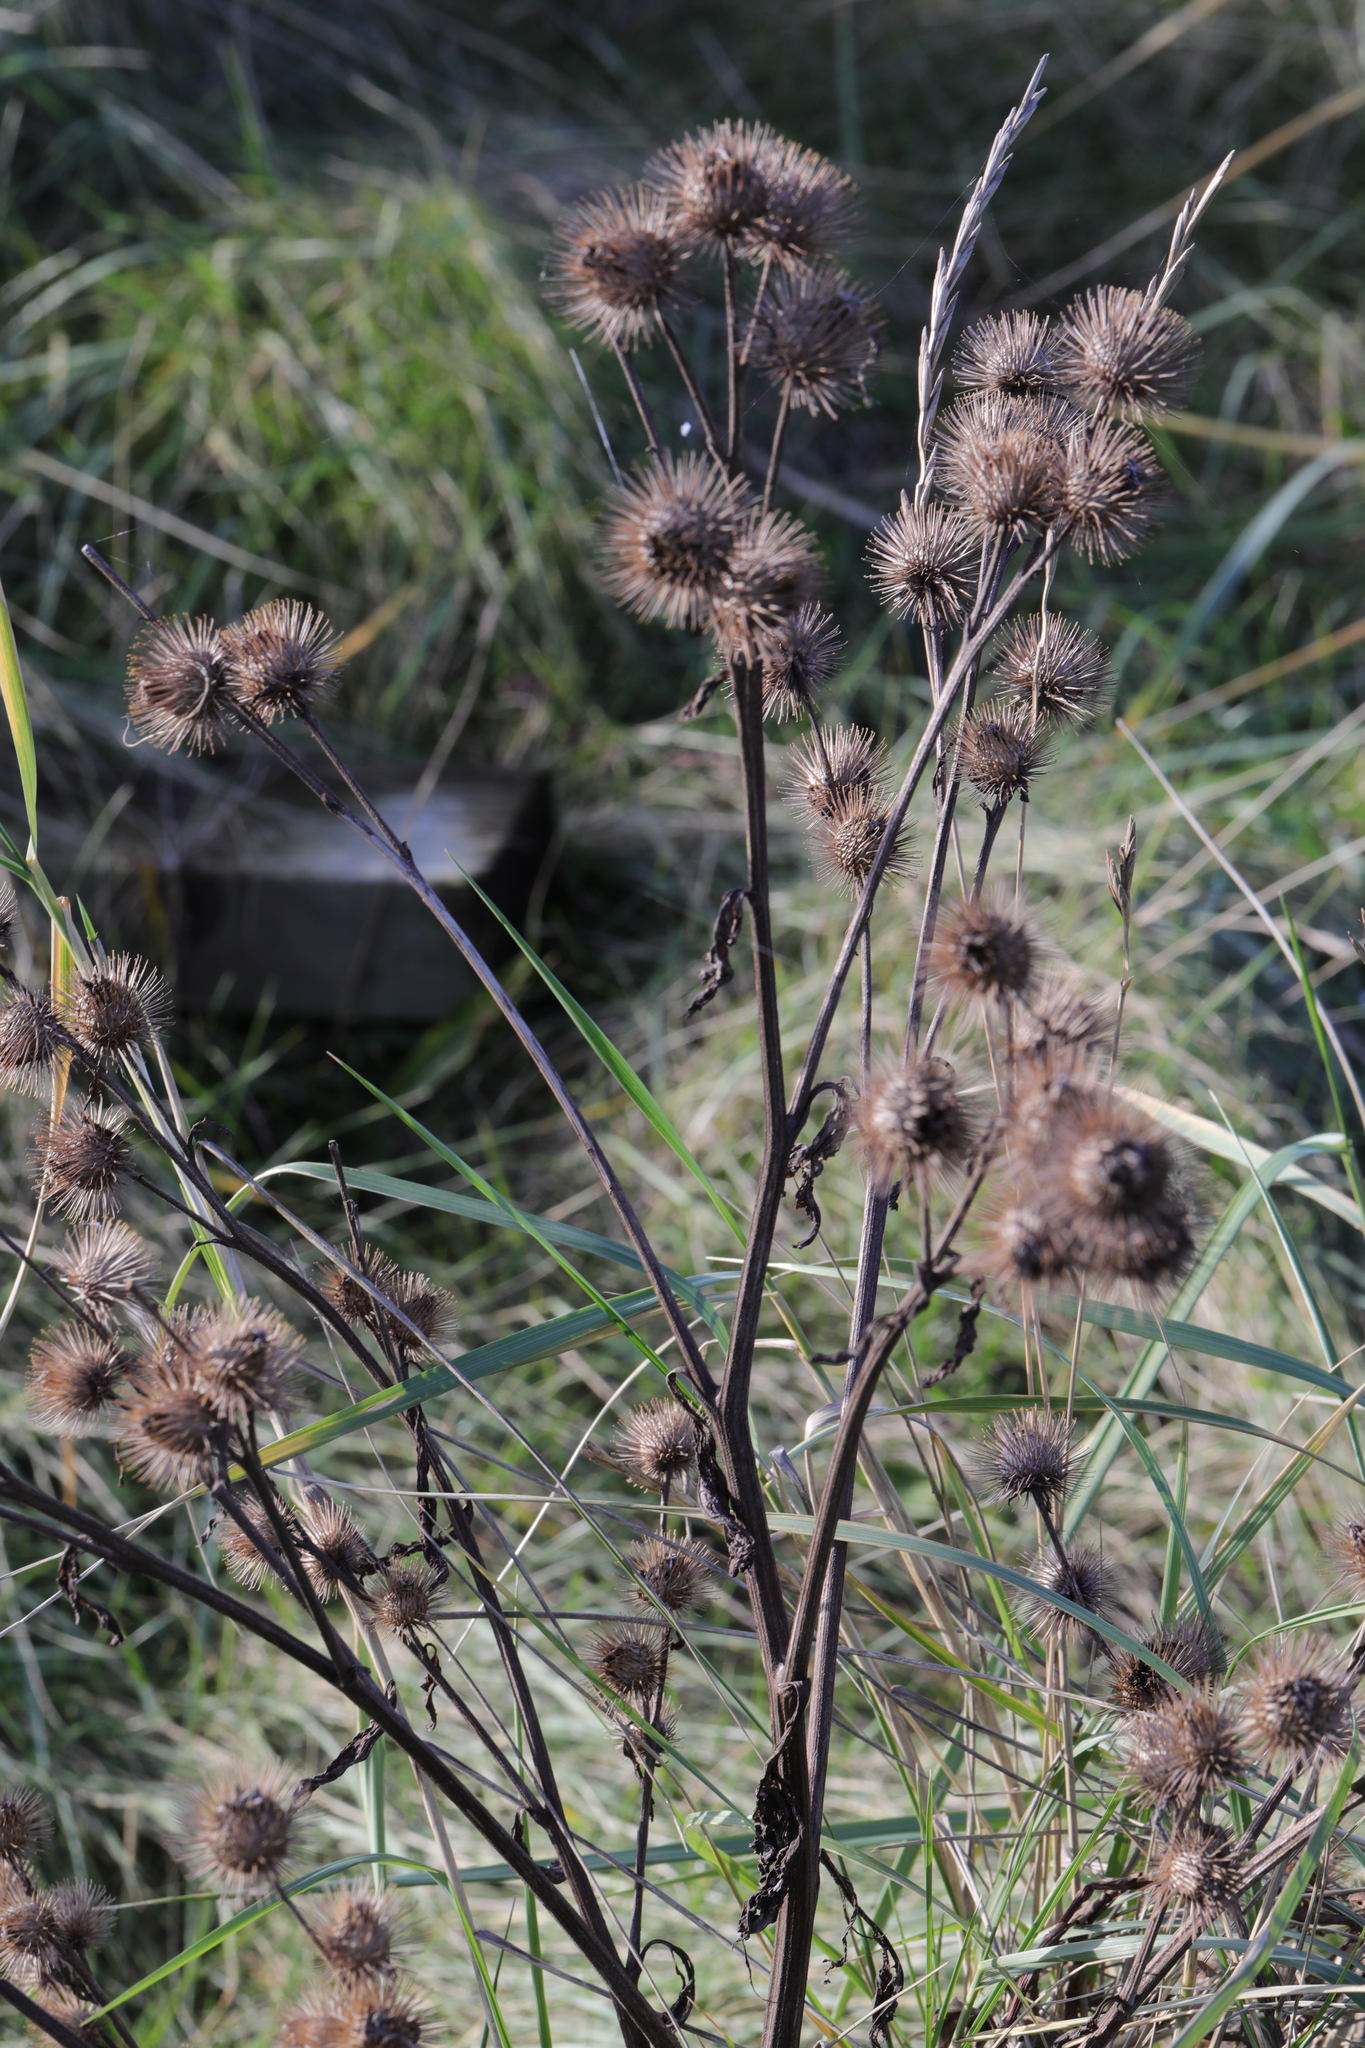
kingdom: Plantae
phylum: Tracheophyta
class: Magnoliopsida
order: Asterales
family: Asteraceae
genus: Arctium
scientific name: Arctium minus
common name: Lesser burdock
